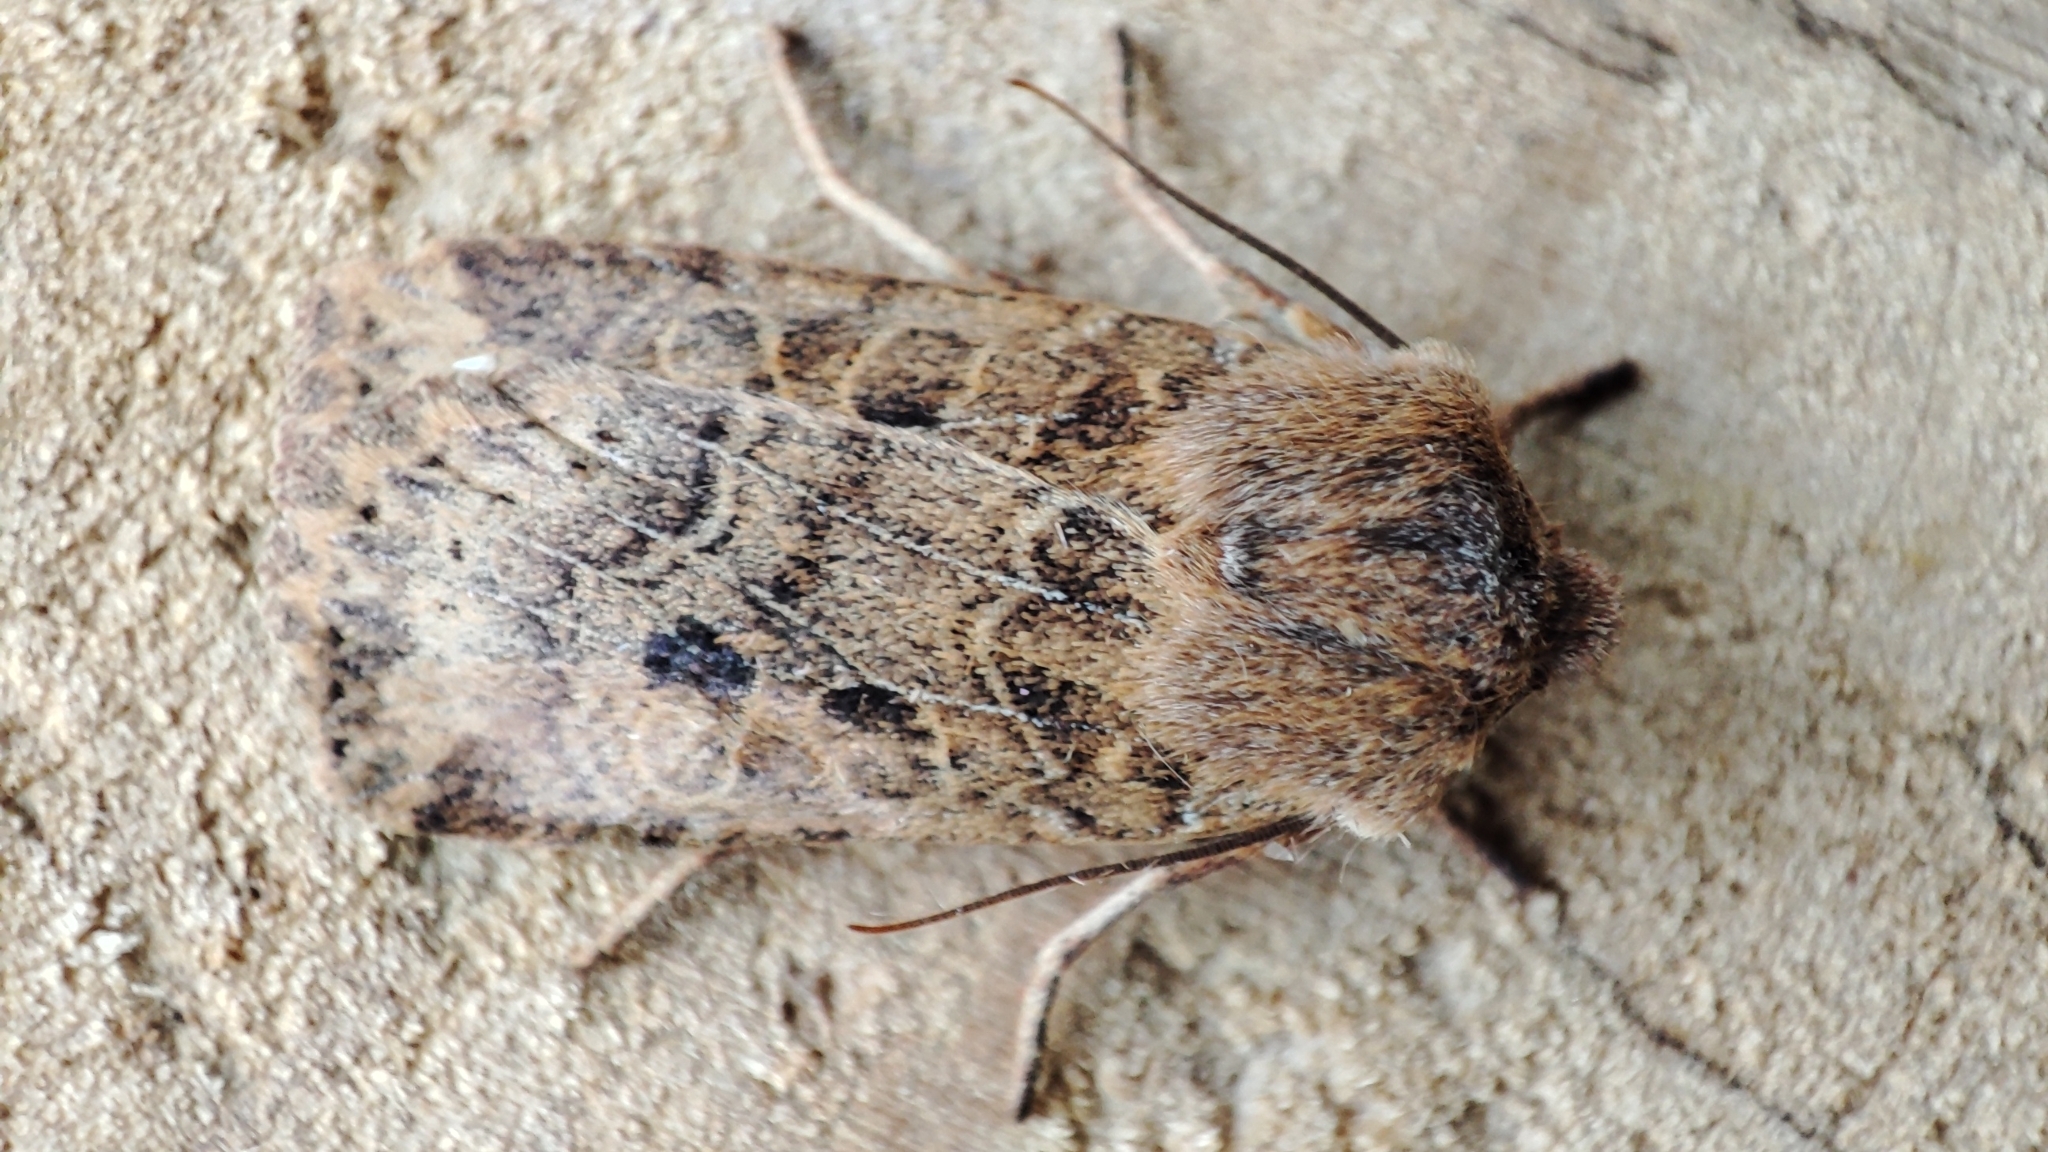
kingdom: Animalia
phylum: Arthropoda
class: Insecta
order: Lepidoptera
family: Noctuidae
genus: Conistra
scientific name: Conistra vaccinii
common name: Chestnut
